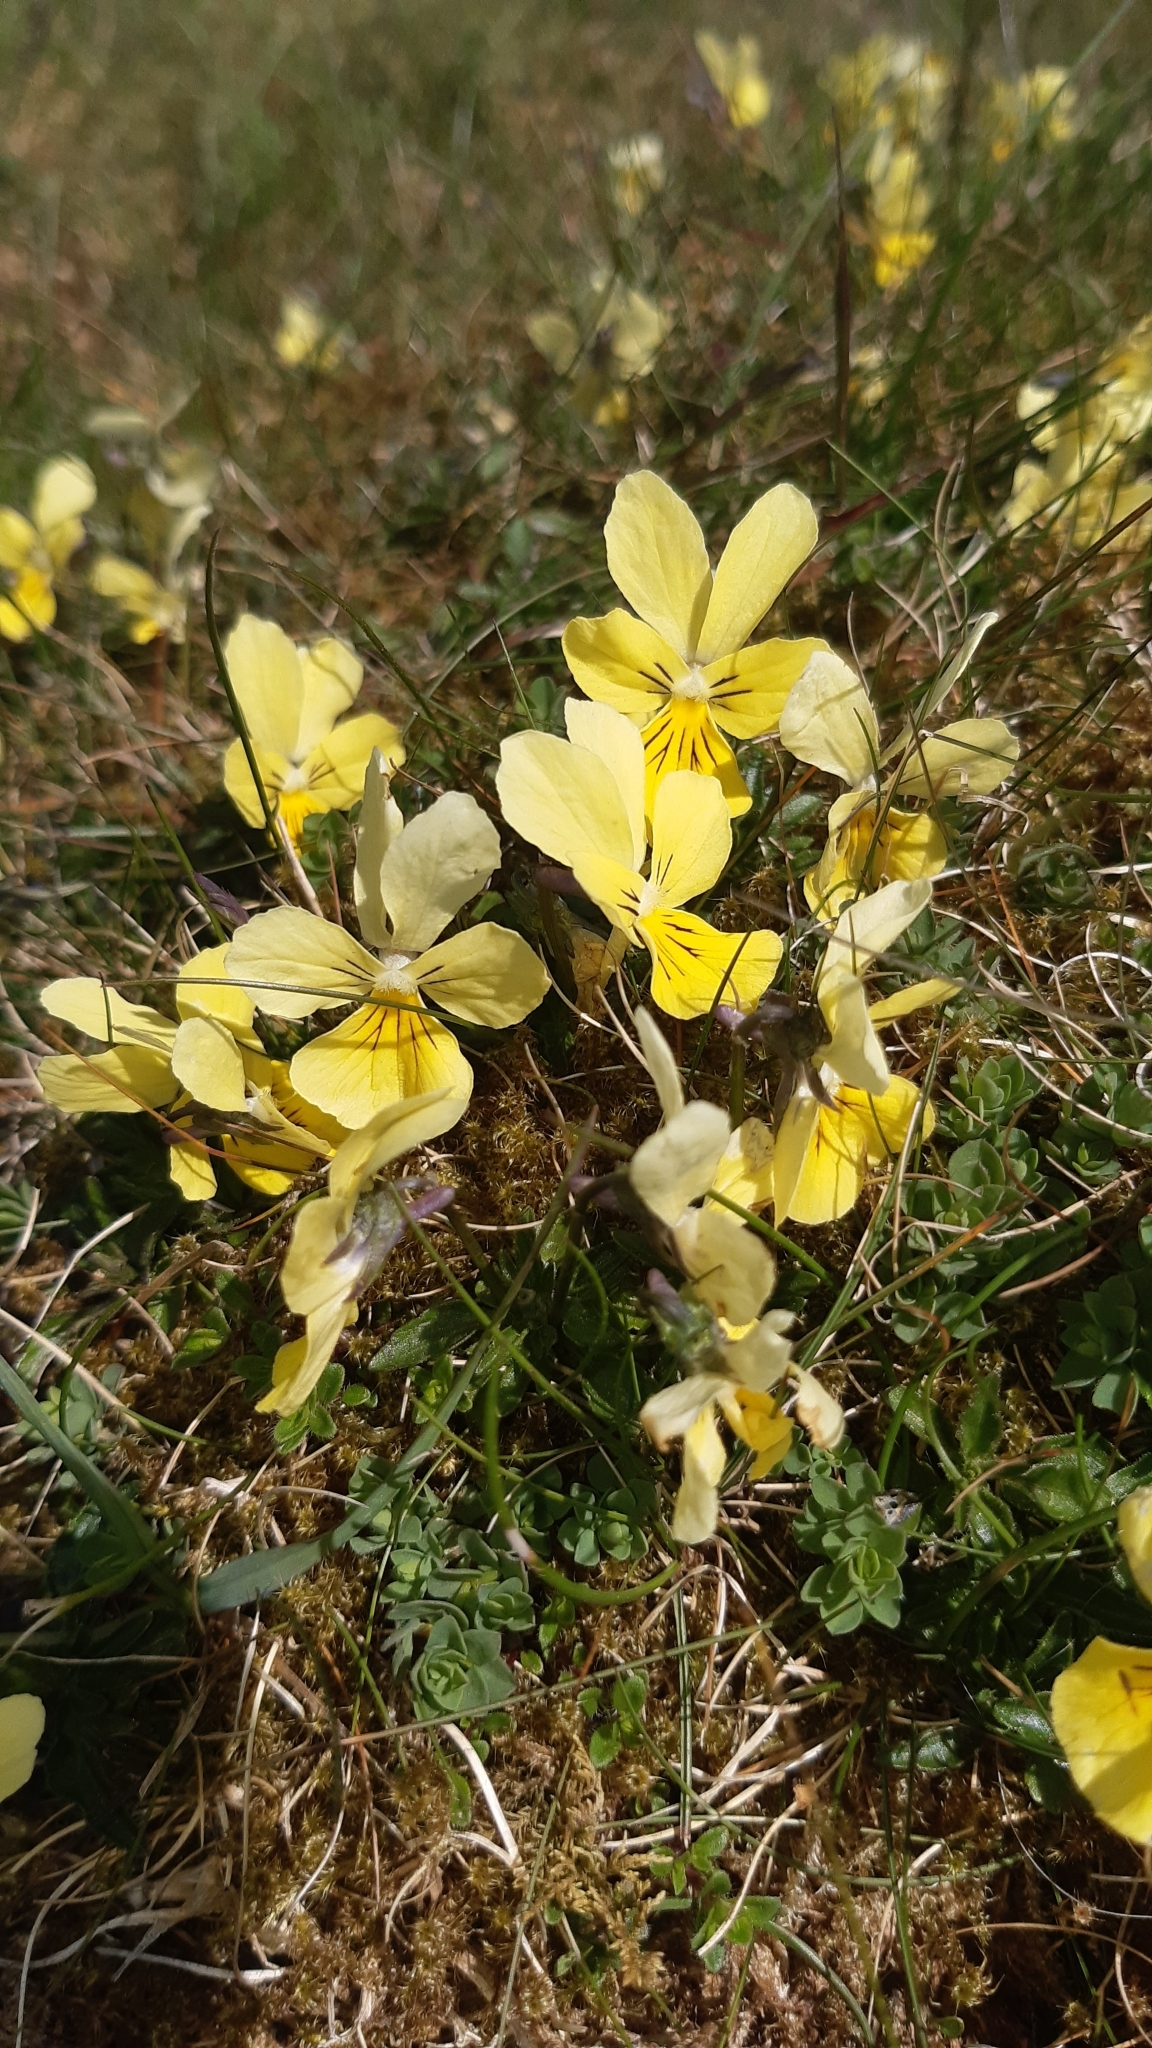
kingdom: Plantae
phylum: Tracheophyta
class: Magnoliopsida
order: Malpighiales
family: Violaceae
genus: Viola
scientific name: Viola lutea
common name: Mountain pansy
